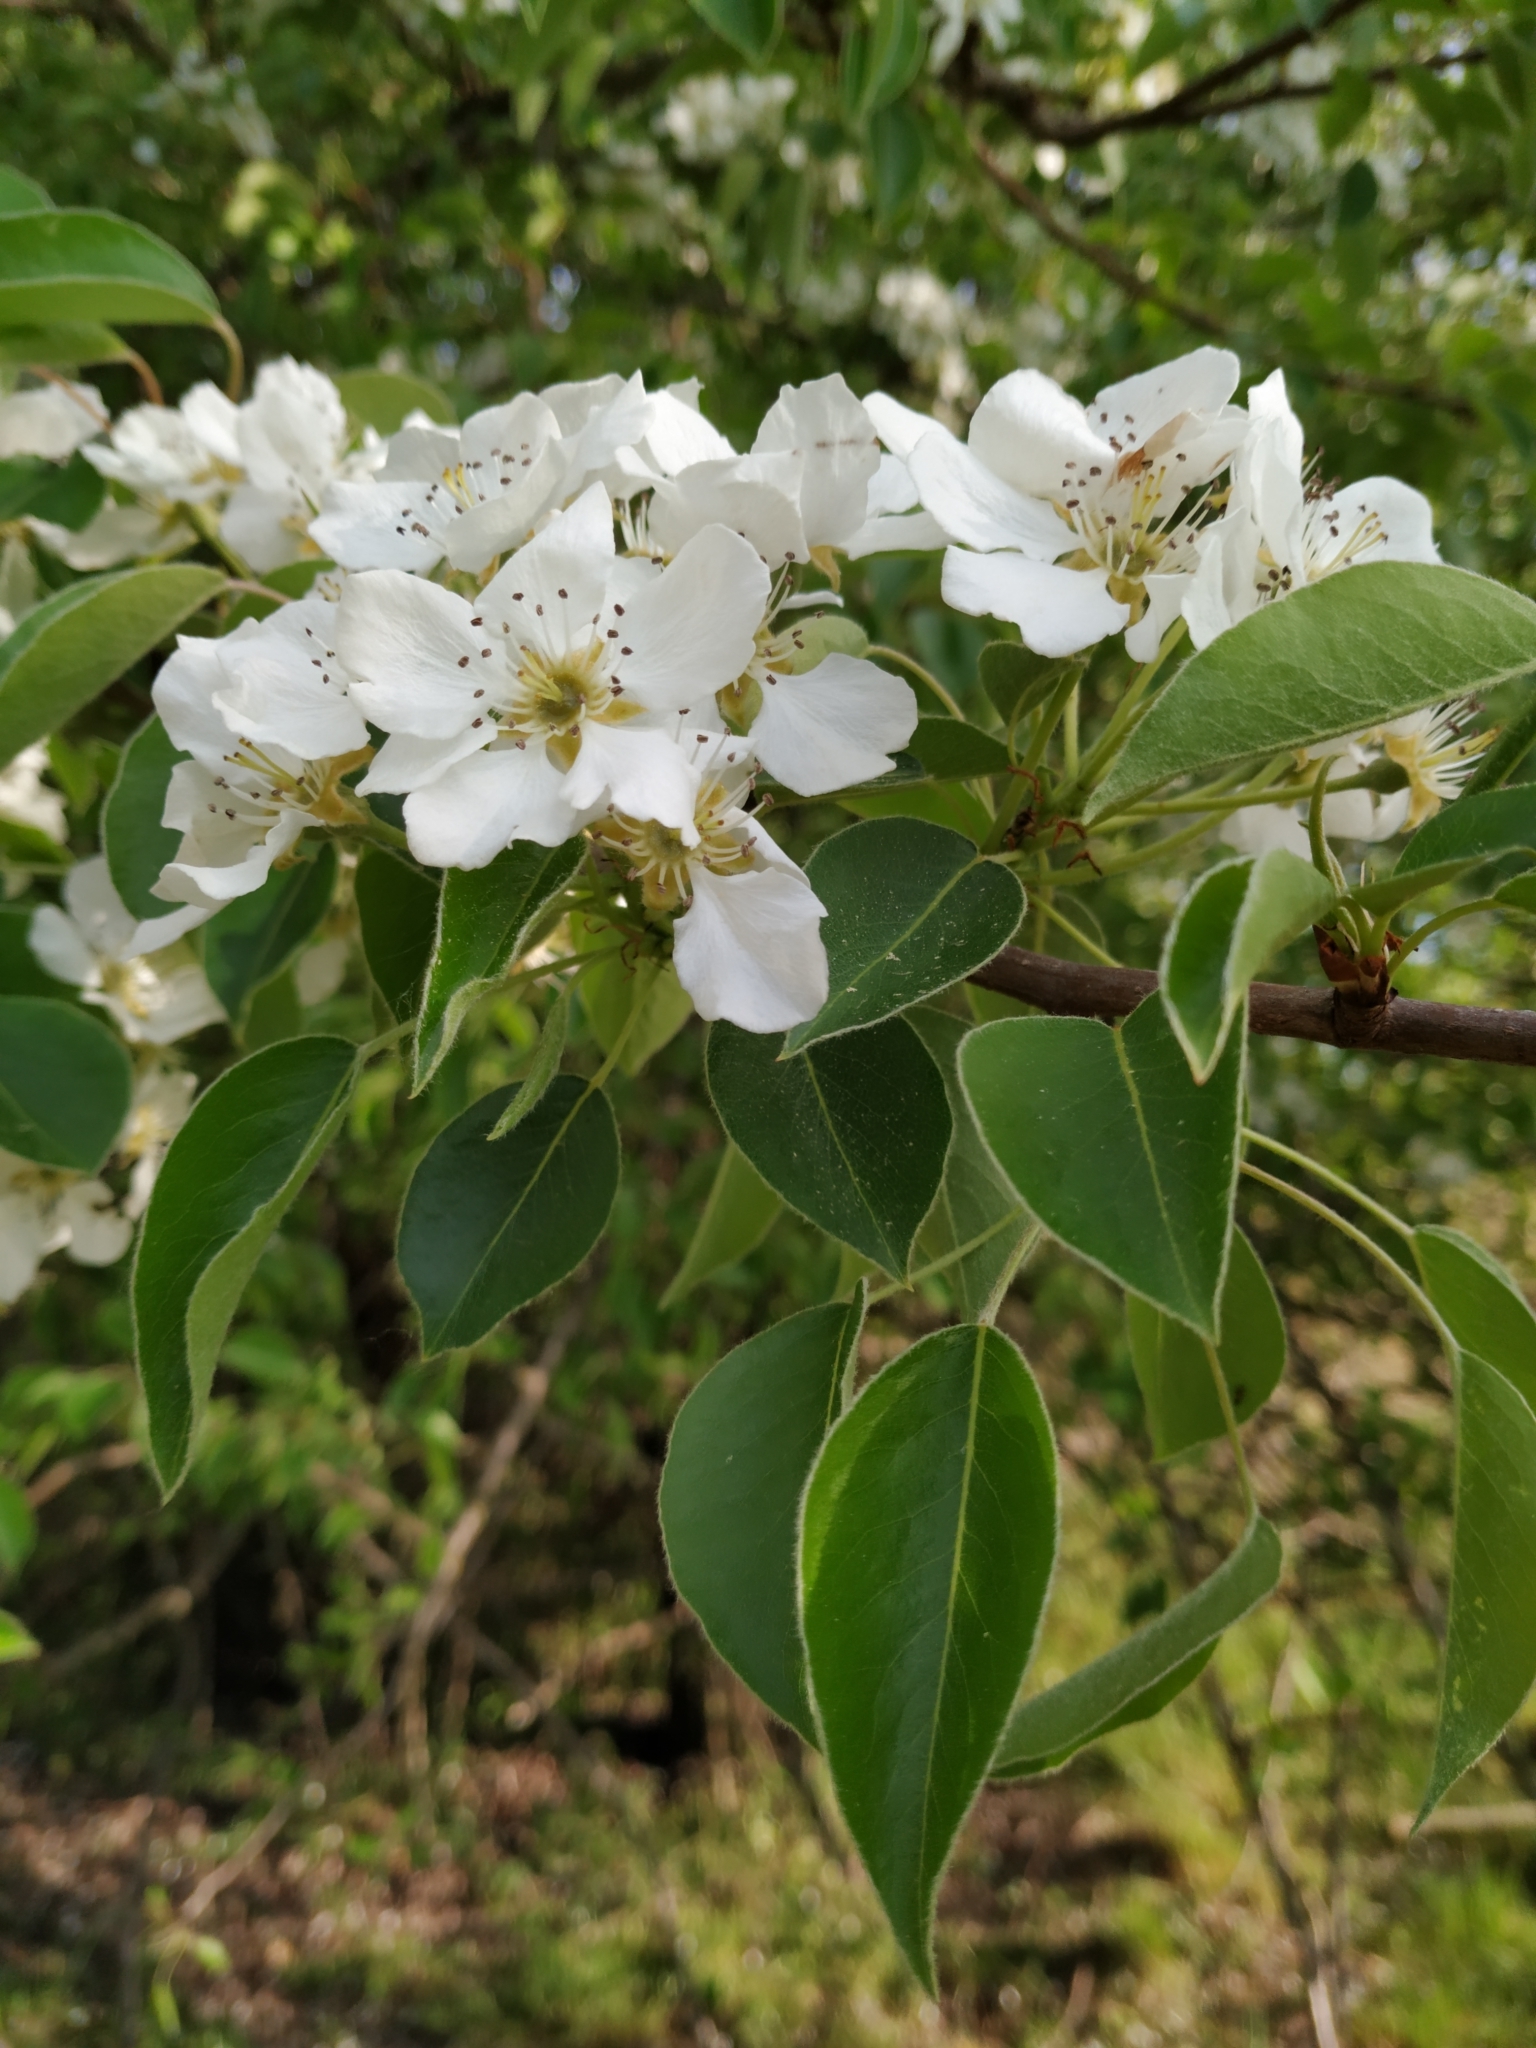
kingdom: Plantae
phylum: Tracheophyta
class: Magnoliopsida
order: Rosales
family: Rosaceae
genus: Pyrus
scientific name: Pyrus communis
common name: Pear
